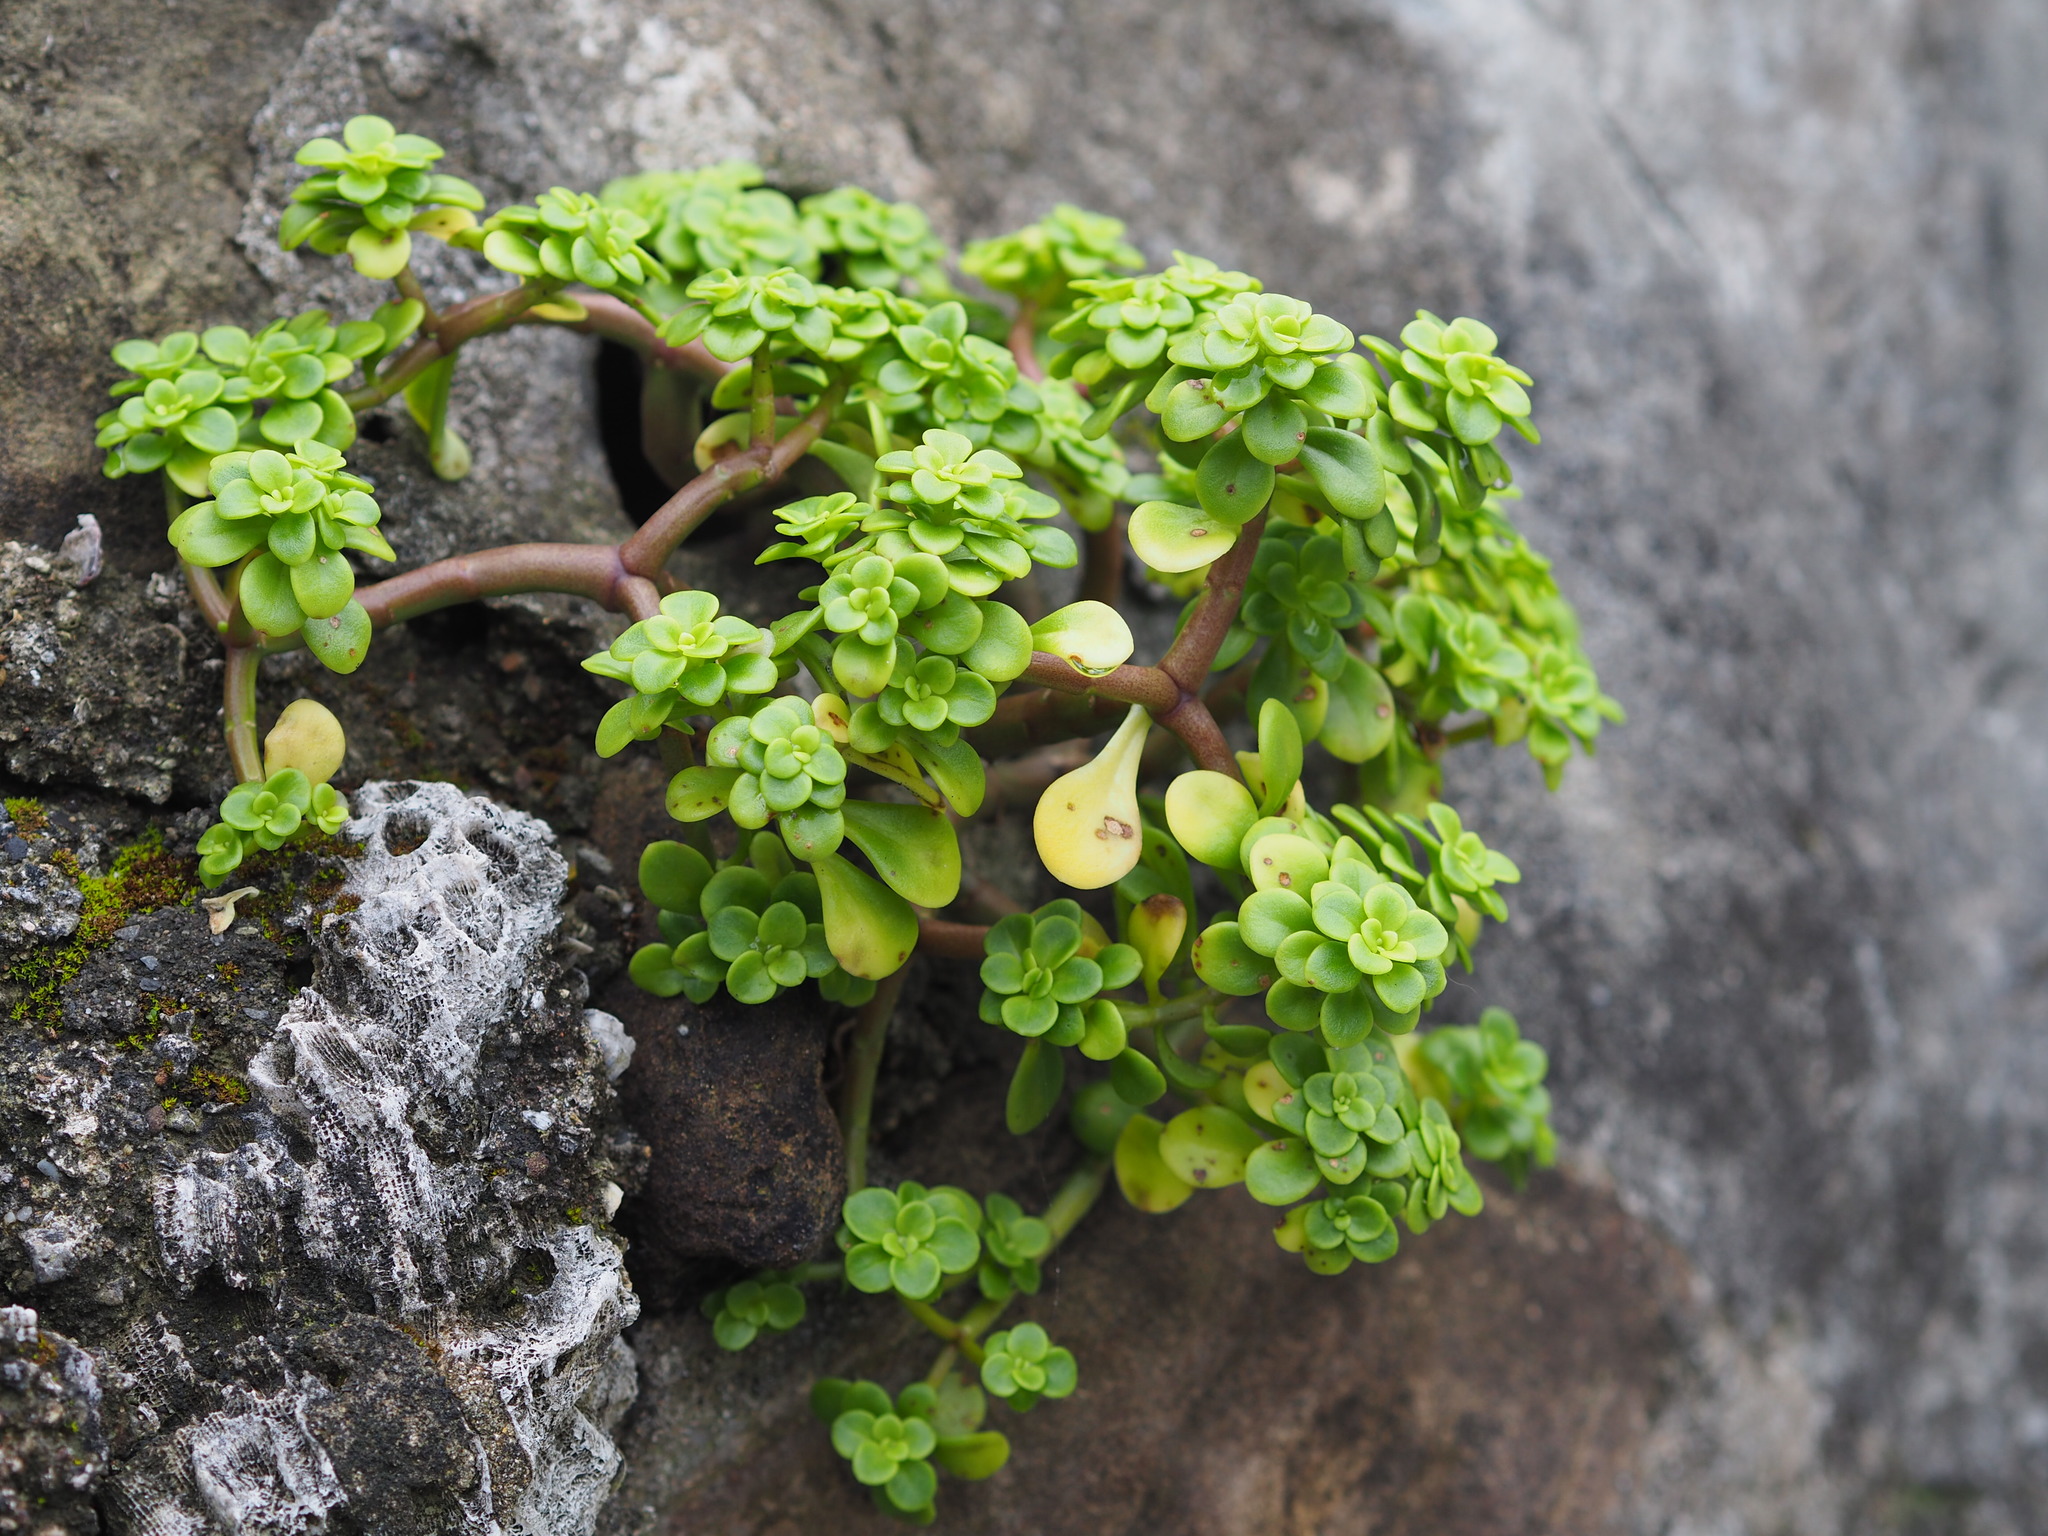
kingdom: Plantae
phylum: Tracheophyta
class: Magnoliopsida
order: Saxifragales
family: Crassulaceae
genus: Sedum
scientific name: Sedum formosanum
